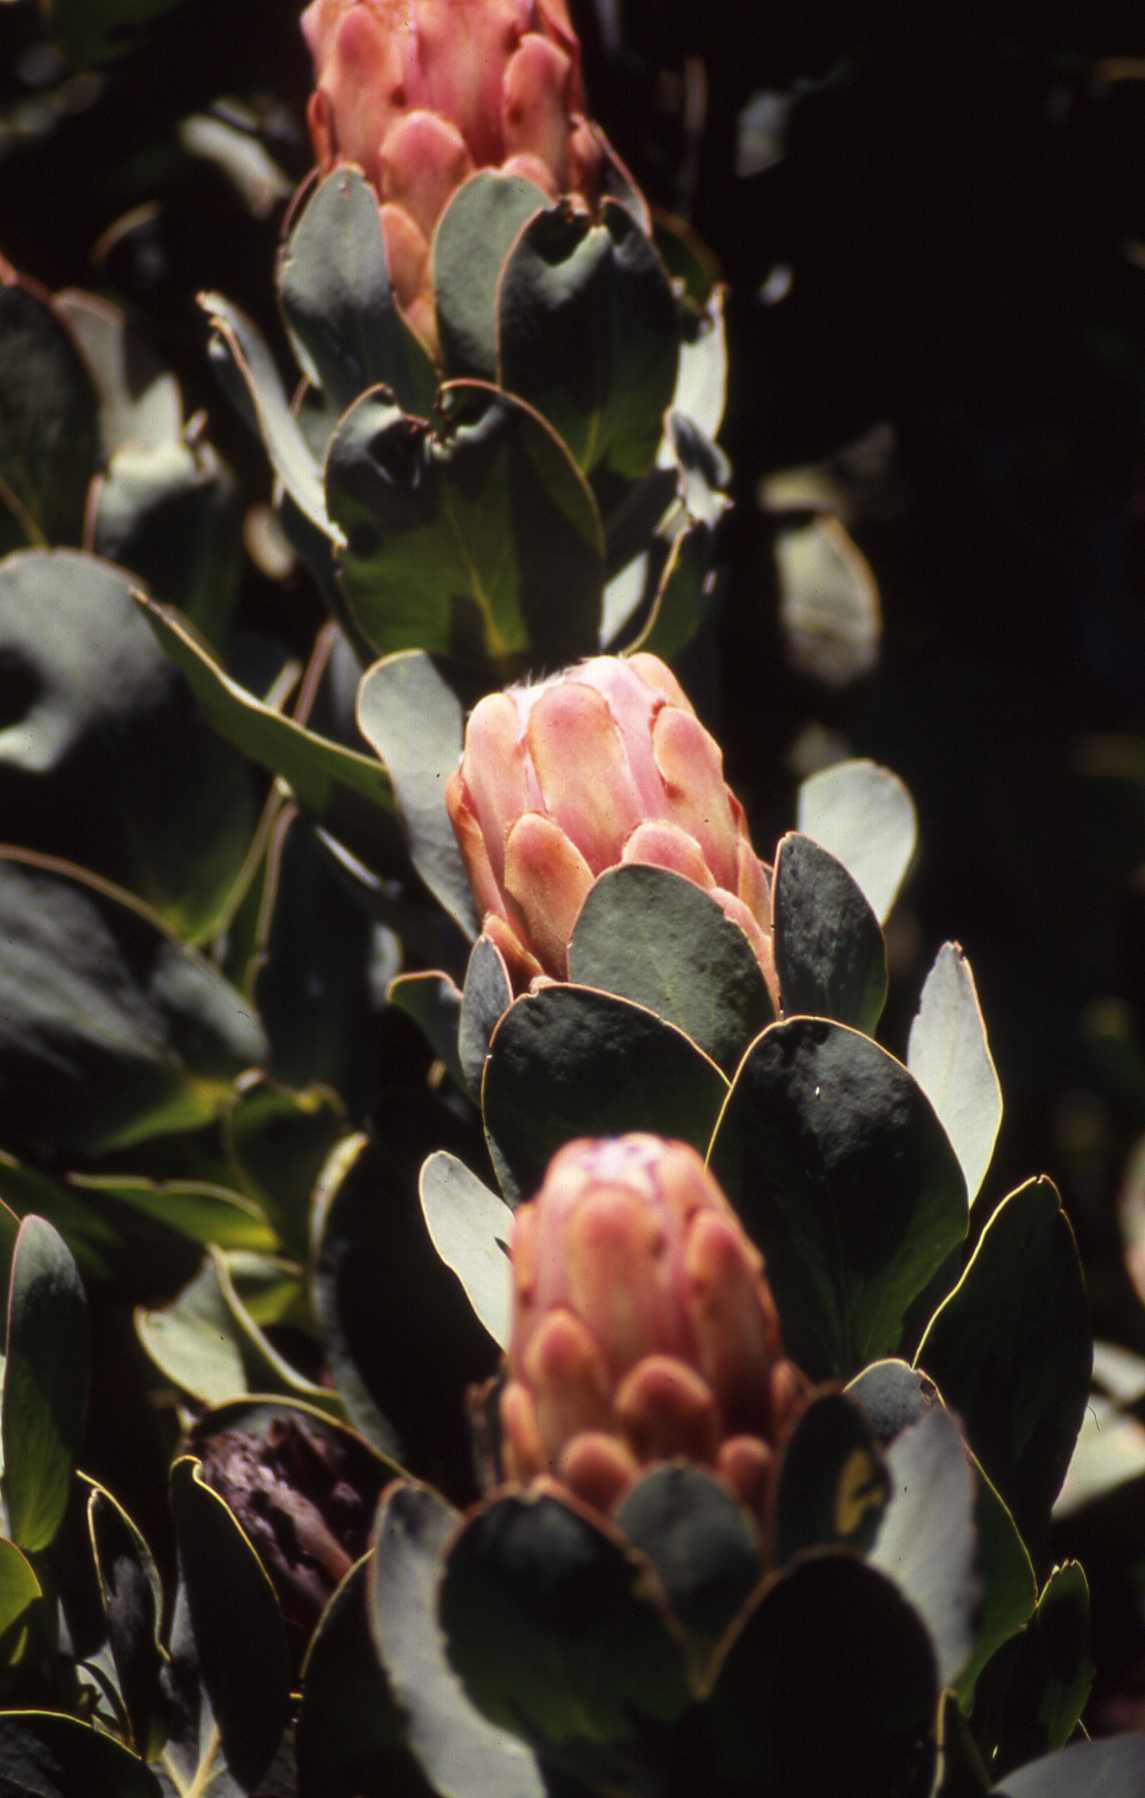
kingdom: Plantae
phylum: Tracheophyta
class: Magnoliopsida
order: Proteales
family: Proteaceae
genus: Protea
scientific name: Protea grandiceps
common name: Red sugarbush
